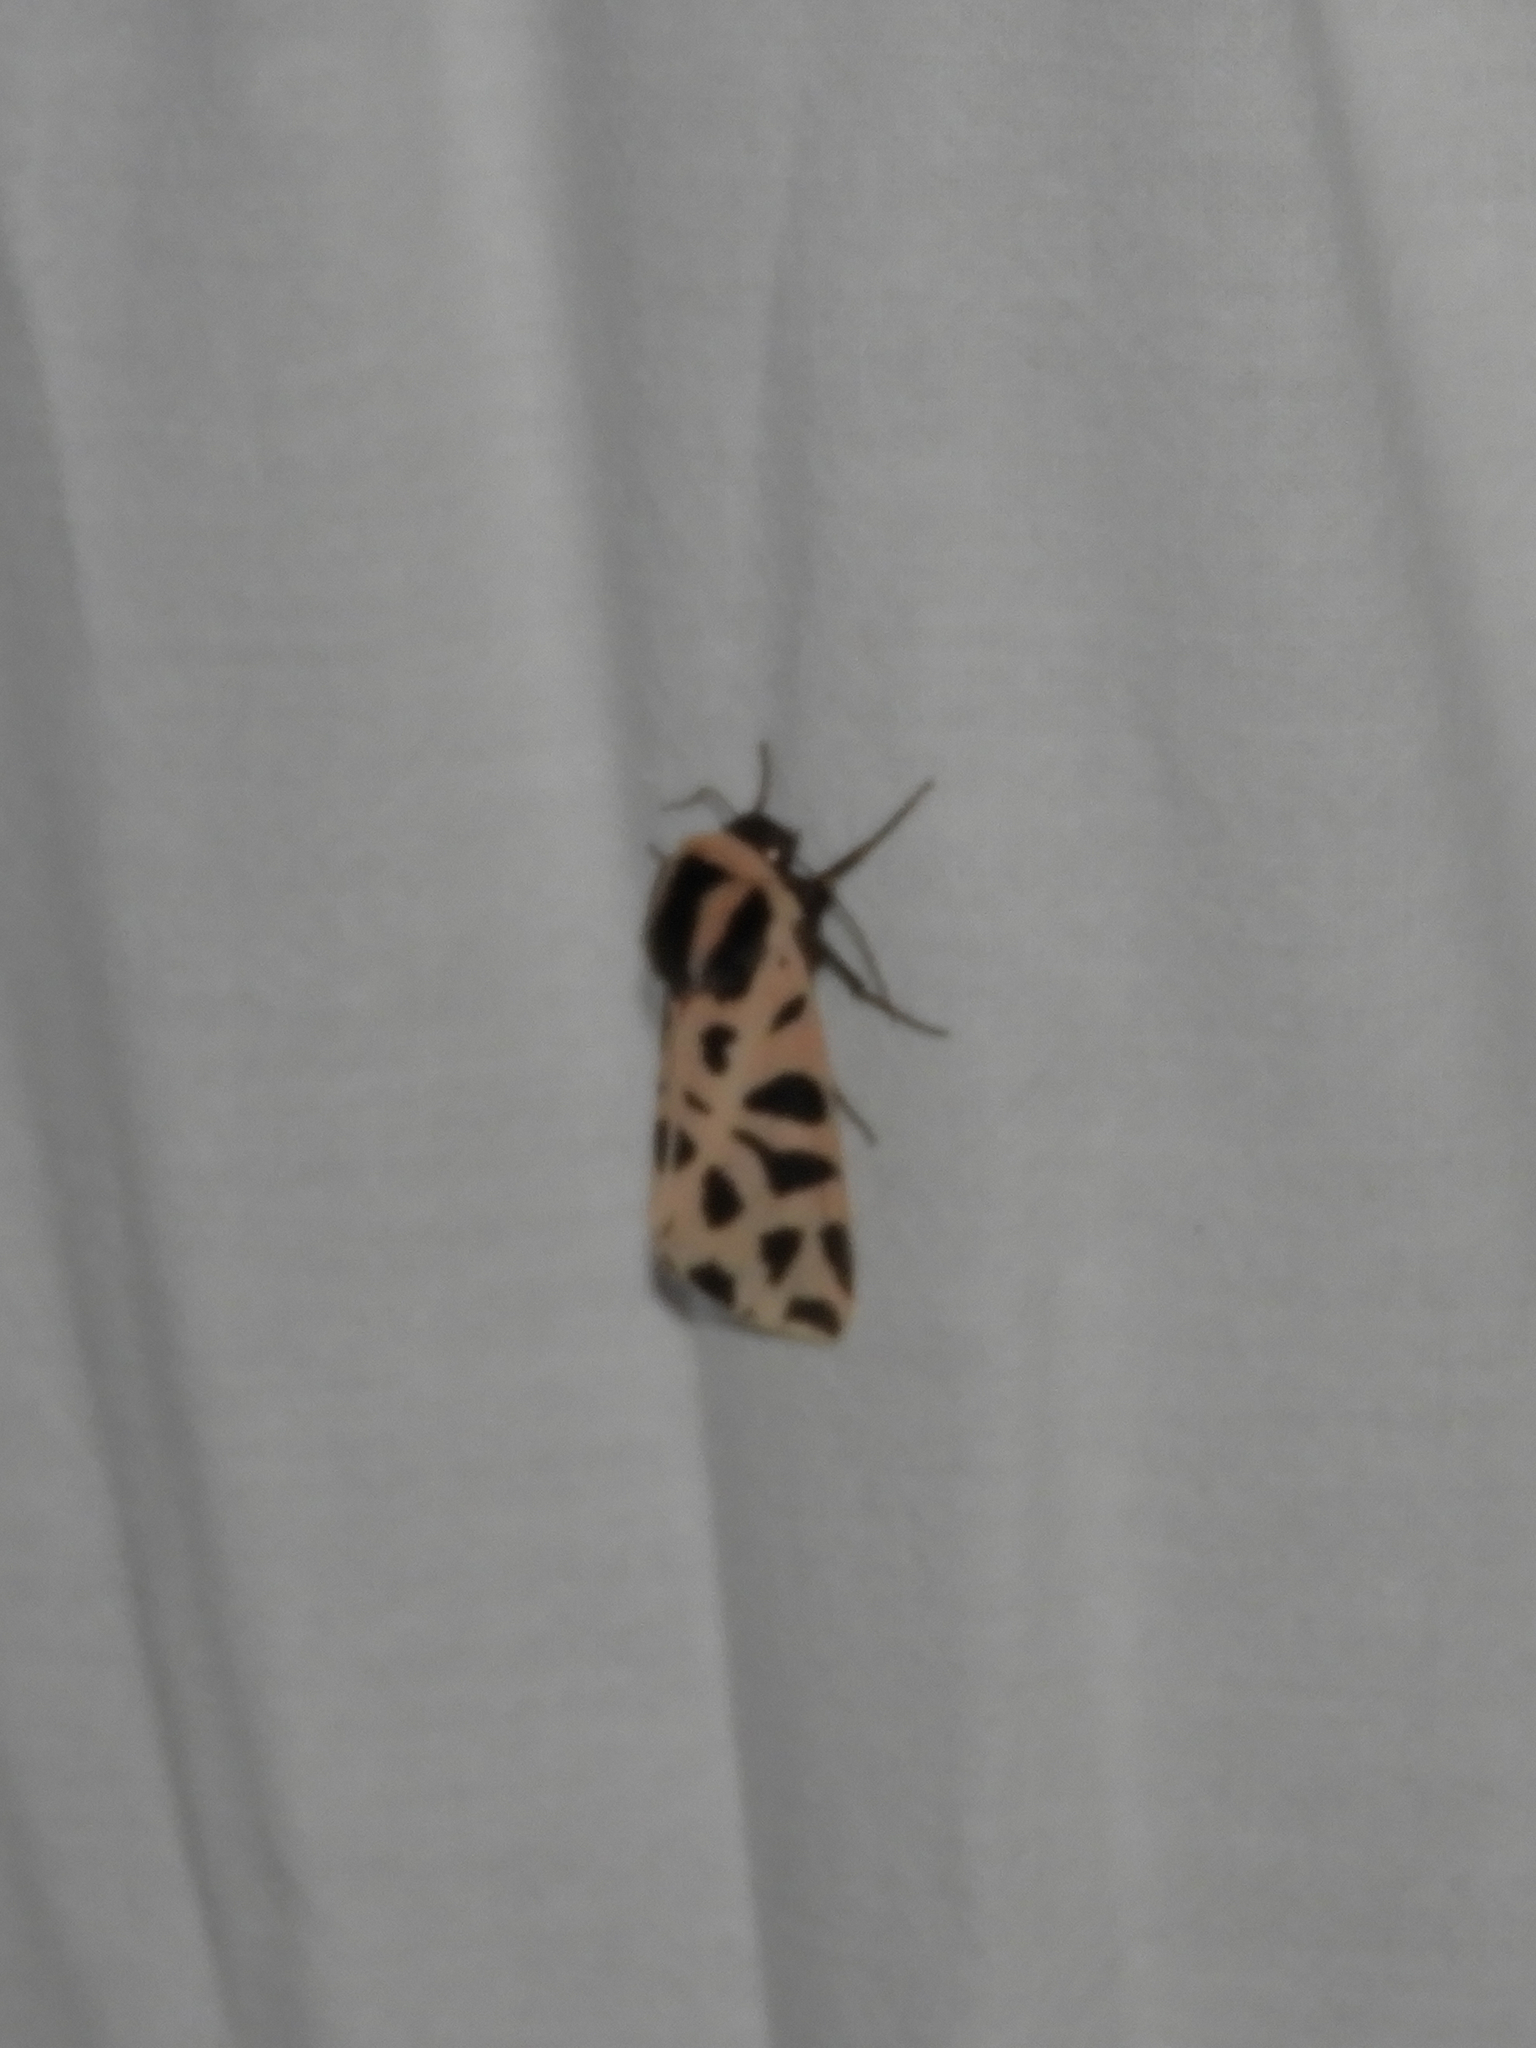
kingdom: Animalia
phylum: Arthropoda
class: Insecta
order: Lepidoptera
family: Erebidae
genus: Cymbalophora
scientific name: Cymbalophora pudica
